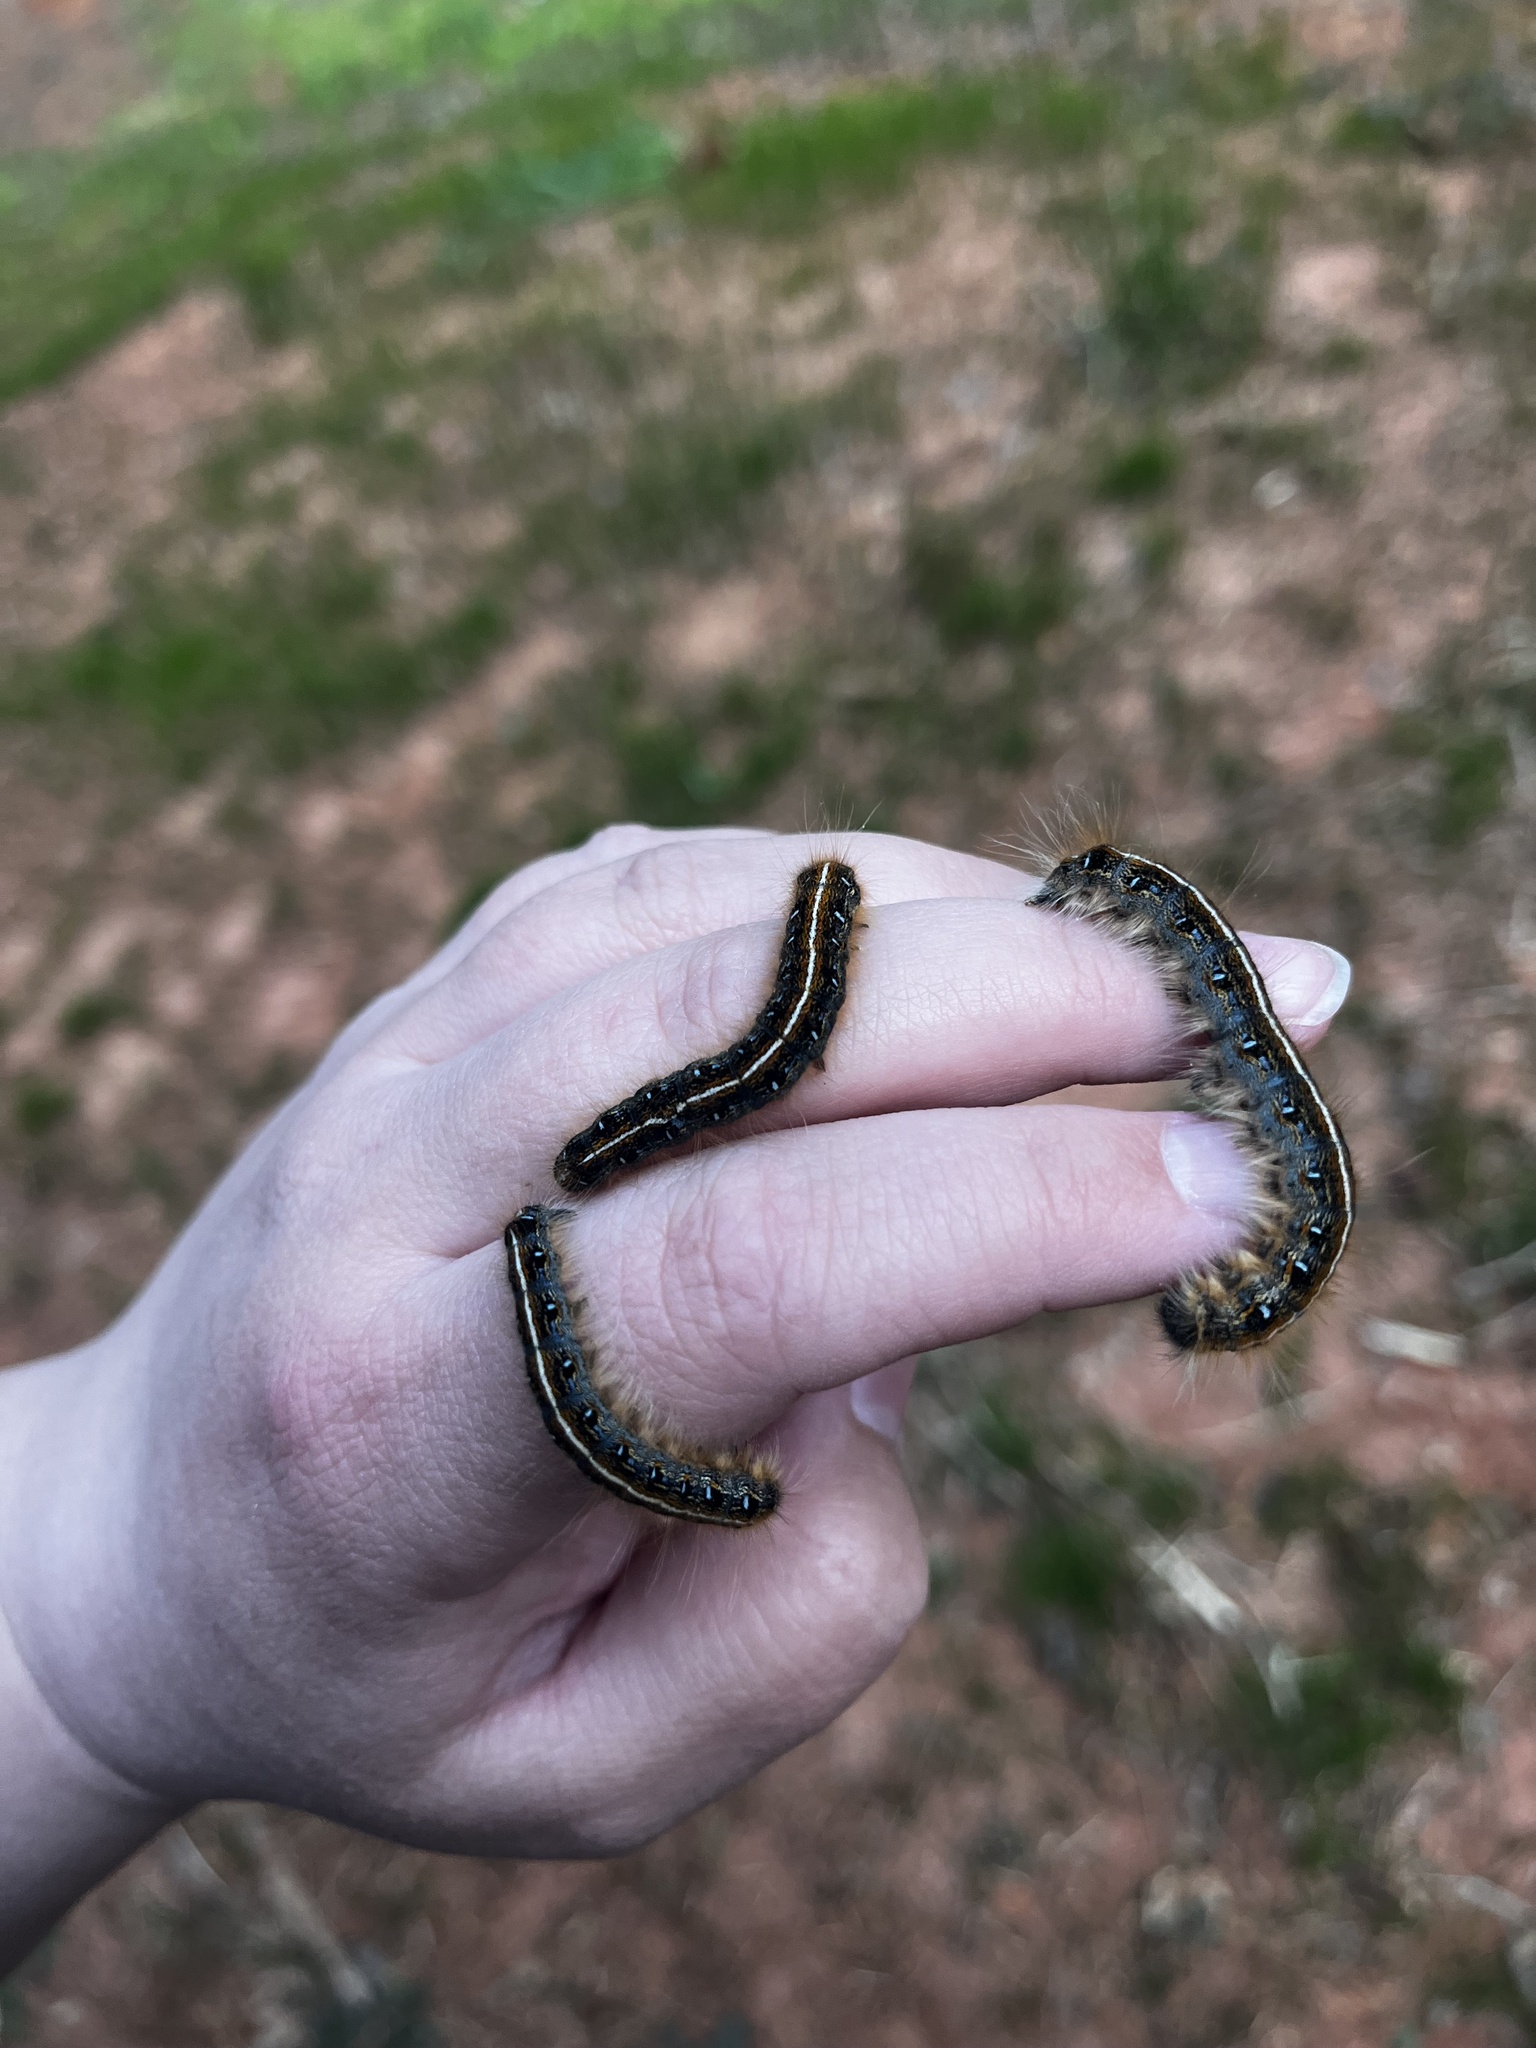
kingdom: Animalia
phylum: Arthropoda
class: Insecta
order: Lepidoptera
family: Lasiocampidae
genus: Malacosoma
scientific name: Malacosoma americana
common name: Eastern tent caterpillar moth
